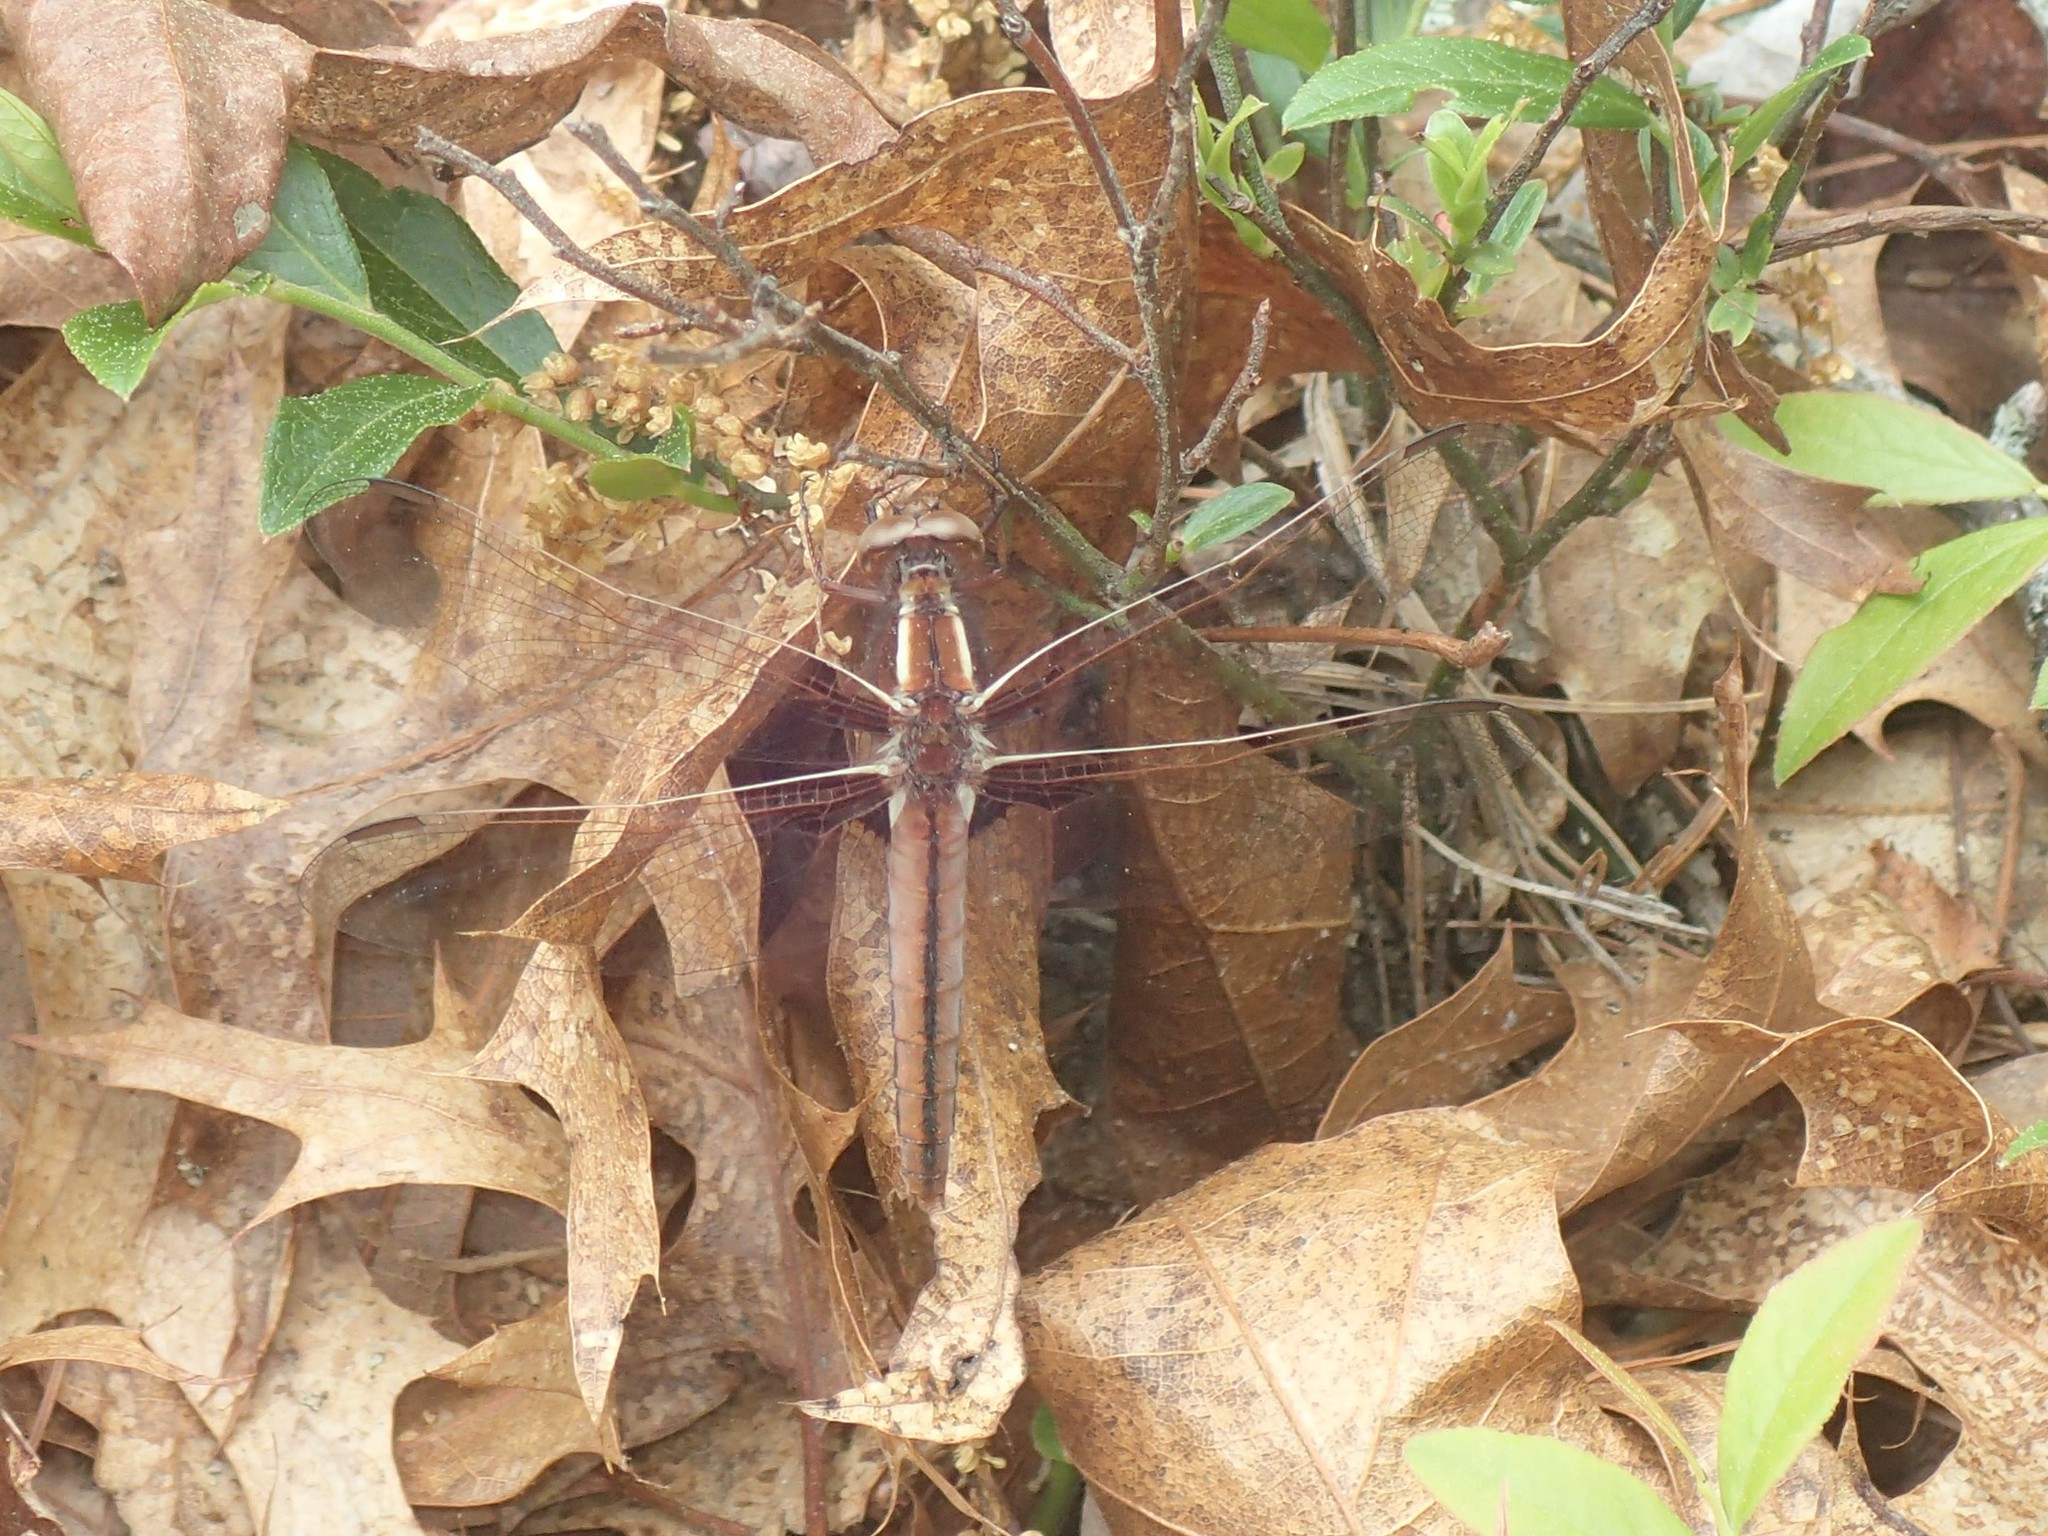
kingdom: Animalia
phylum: Arthropoda
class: Insecta
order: Odonata
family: Libellulidae
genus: Ladona
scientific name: Ladona exusta
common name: Libellule embrasée
